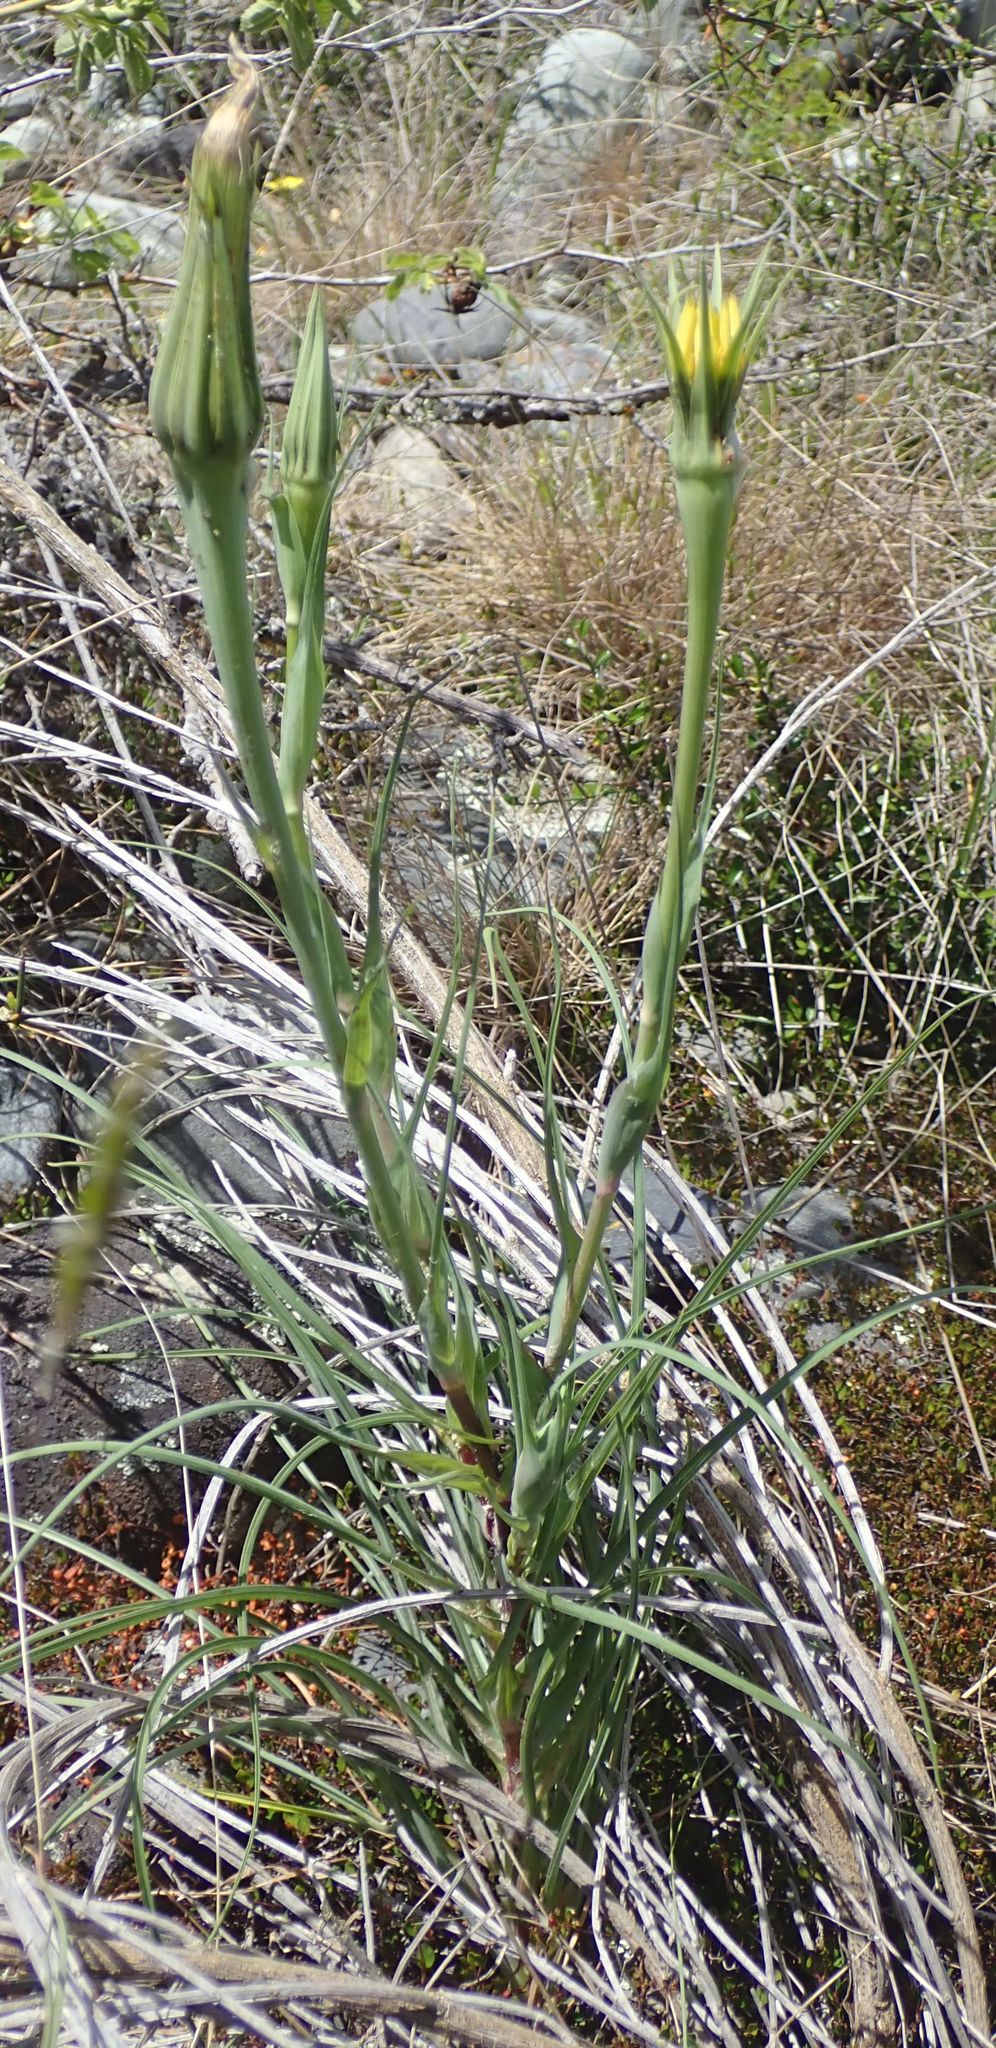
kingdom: Plantae
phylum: Tracheophyta
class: Magnoliopsida
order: Asterales
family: Asteraceae
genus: Tragopogon
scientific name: Tragopogon dubius
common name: Yellow salsify
